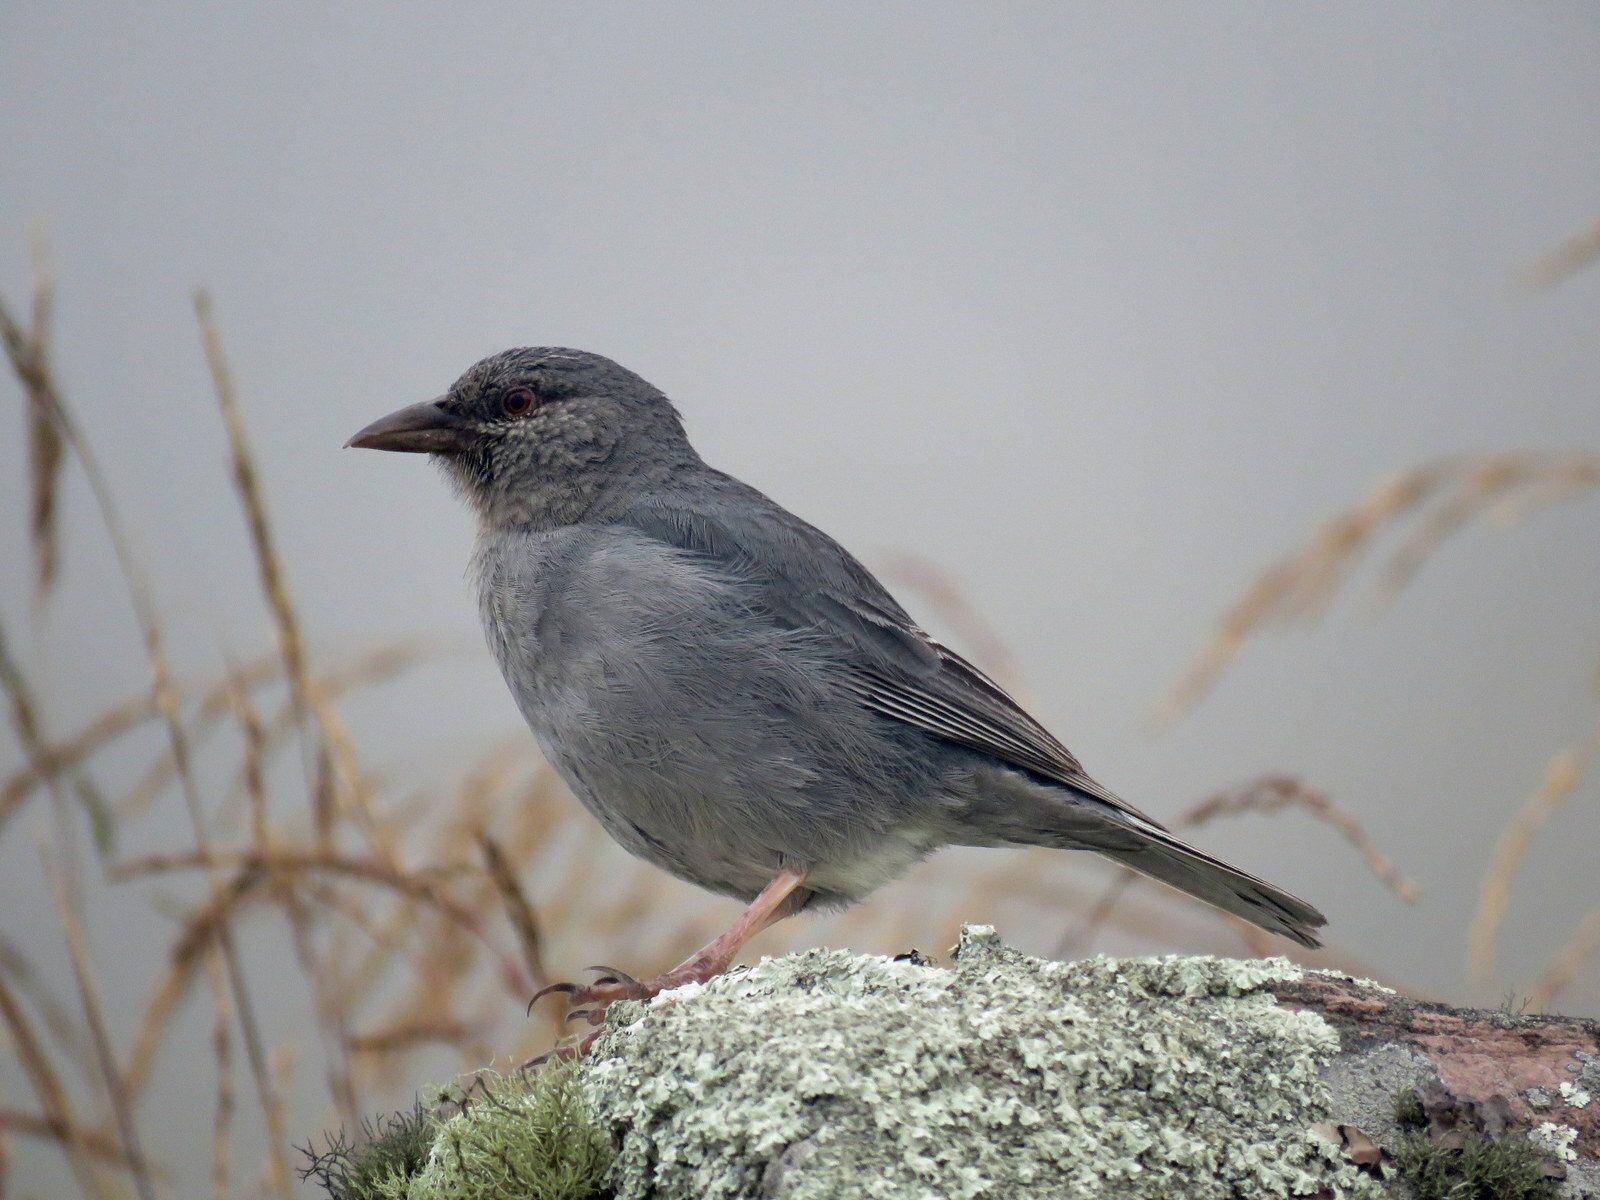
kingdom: Animalia
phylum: Chordata
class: Aves
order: Passeriformes
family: Thraupidae
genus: Idiopsar
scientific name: Idiopsar brachyurus
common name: Short-tailed finch
